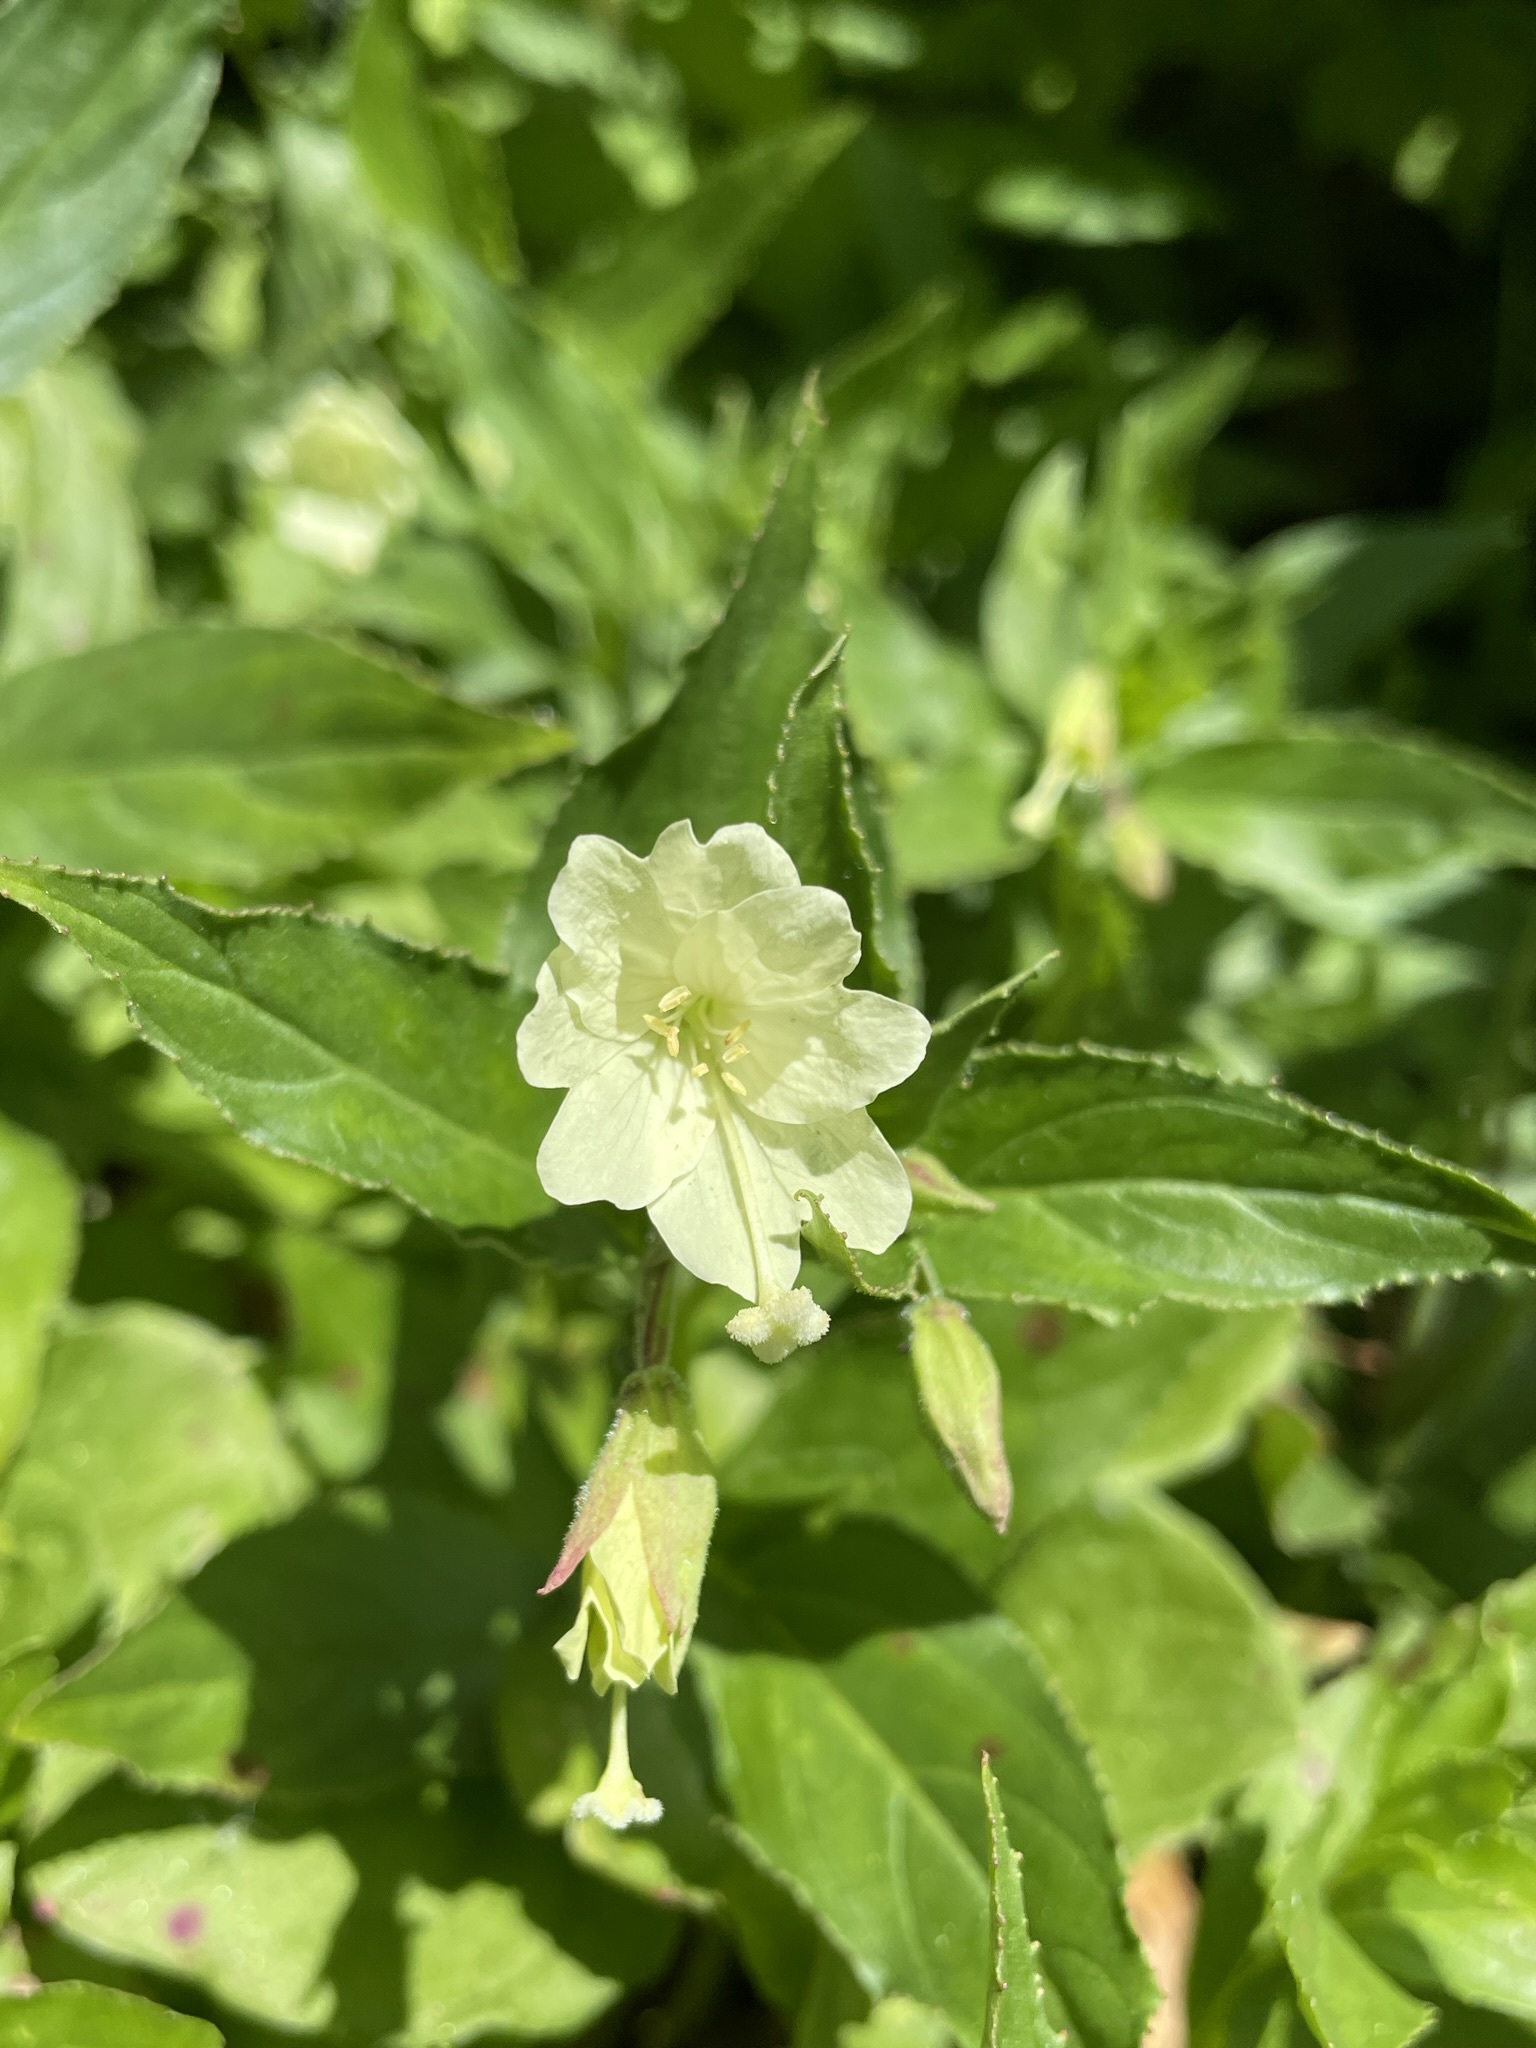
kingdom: Plantae
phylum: Tracheophyta
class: Magnoliopsida
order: Myrtales
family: Onagraceae
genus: Epilobium
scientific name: Epilobium luteum
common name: Yellow willowherb
